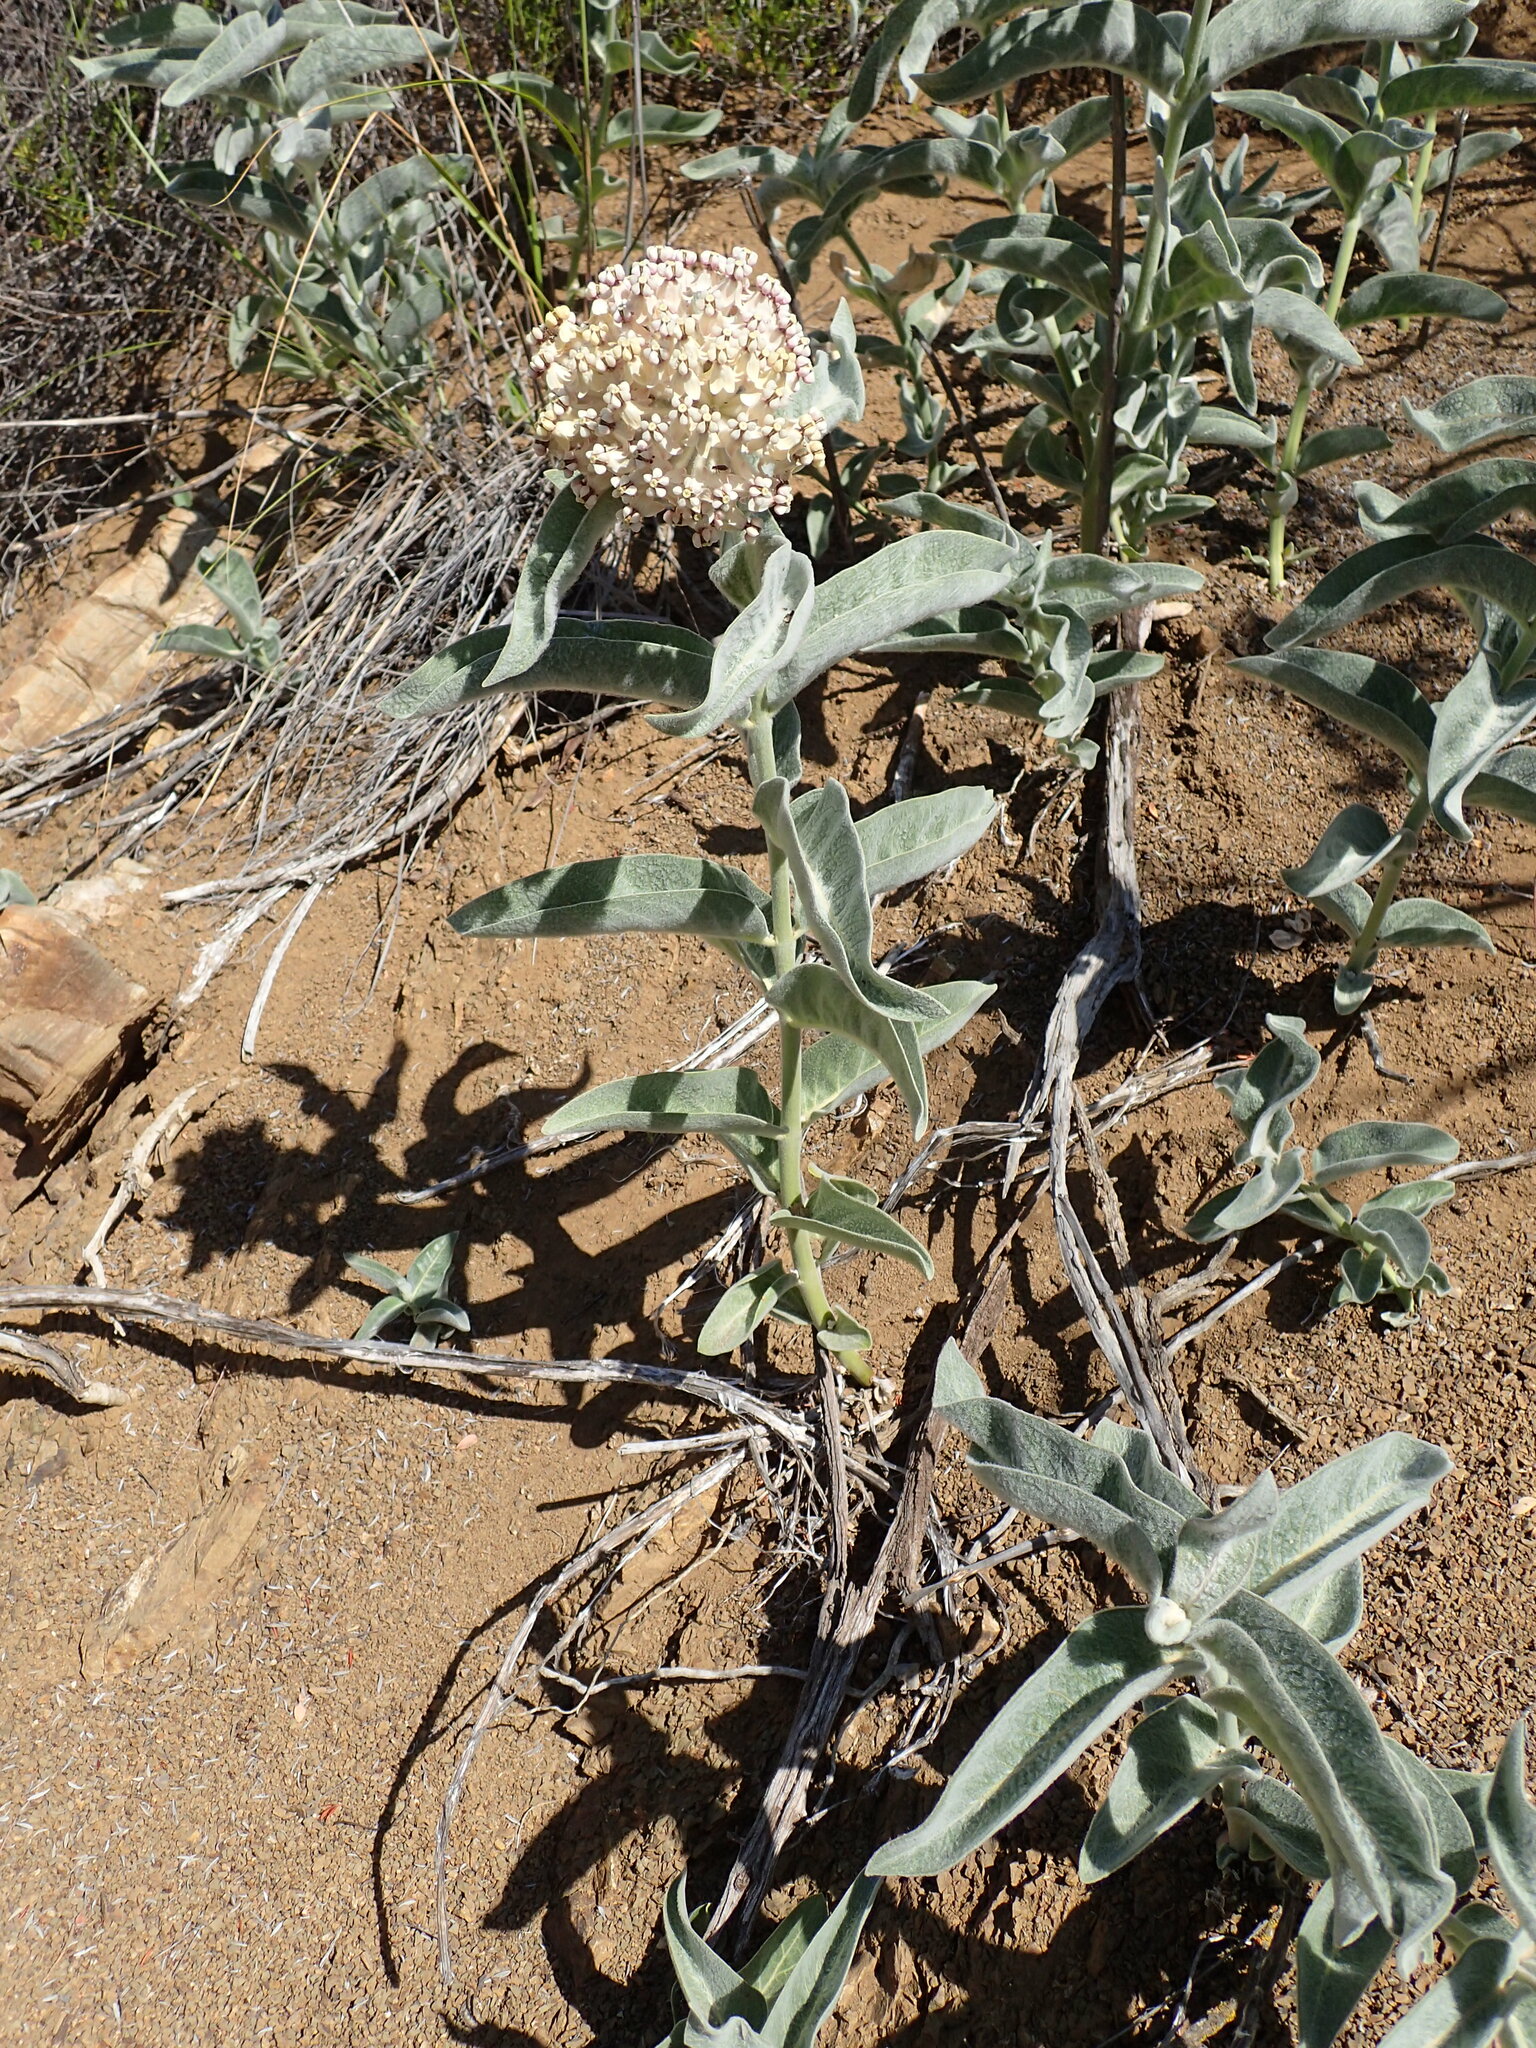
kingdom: Plantae
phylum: Tracheophyta
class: Magnoliopsida
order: Gentianales
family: Apocynaceae
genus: Asclepias
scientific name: Asclepias eriocarpa
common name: Indian milkweed
